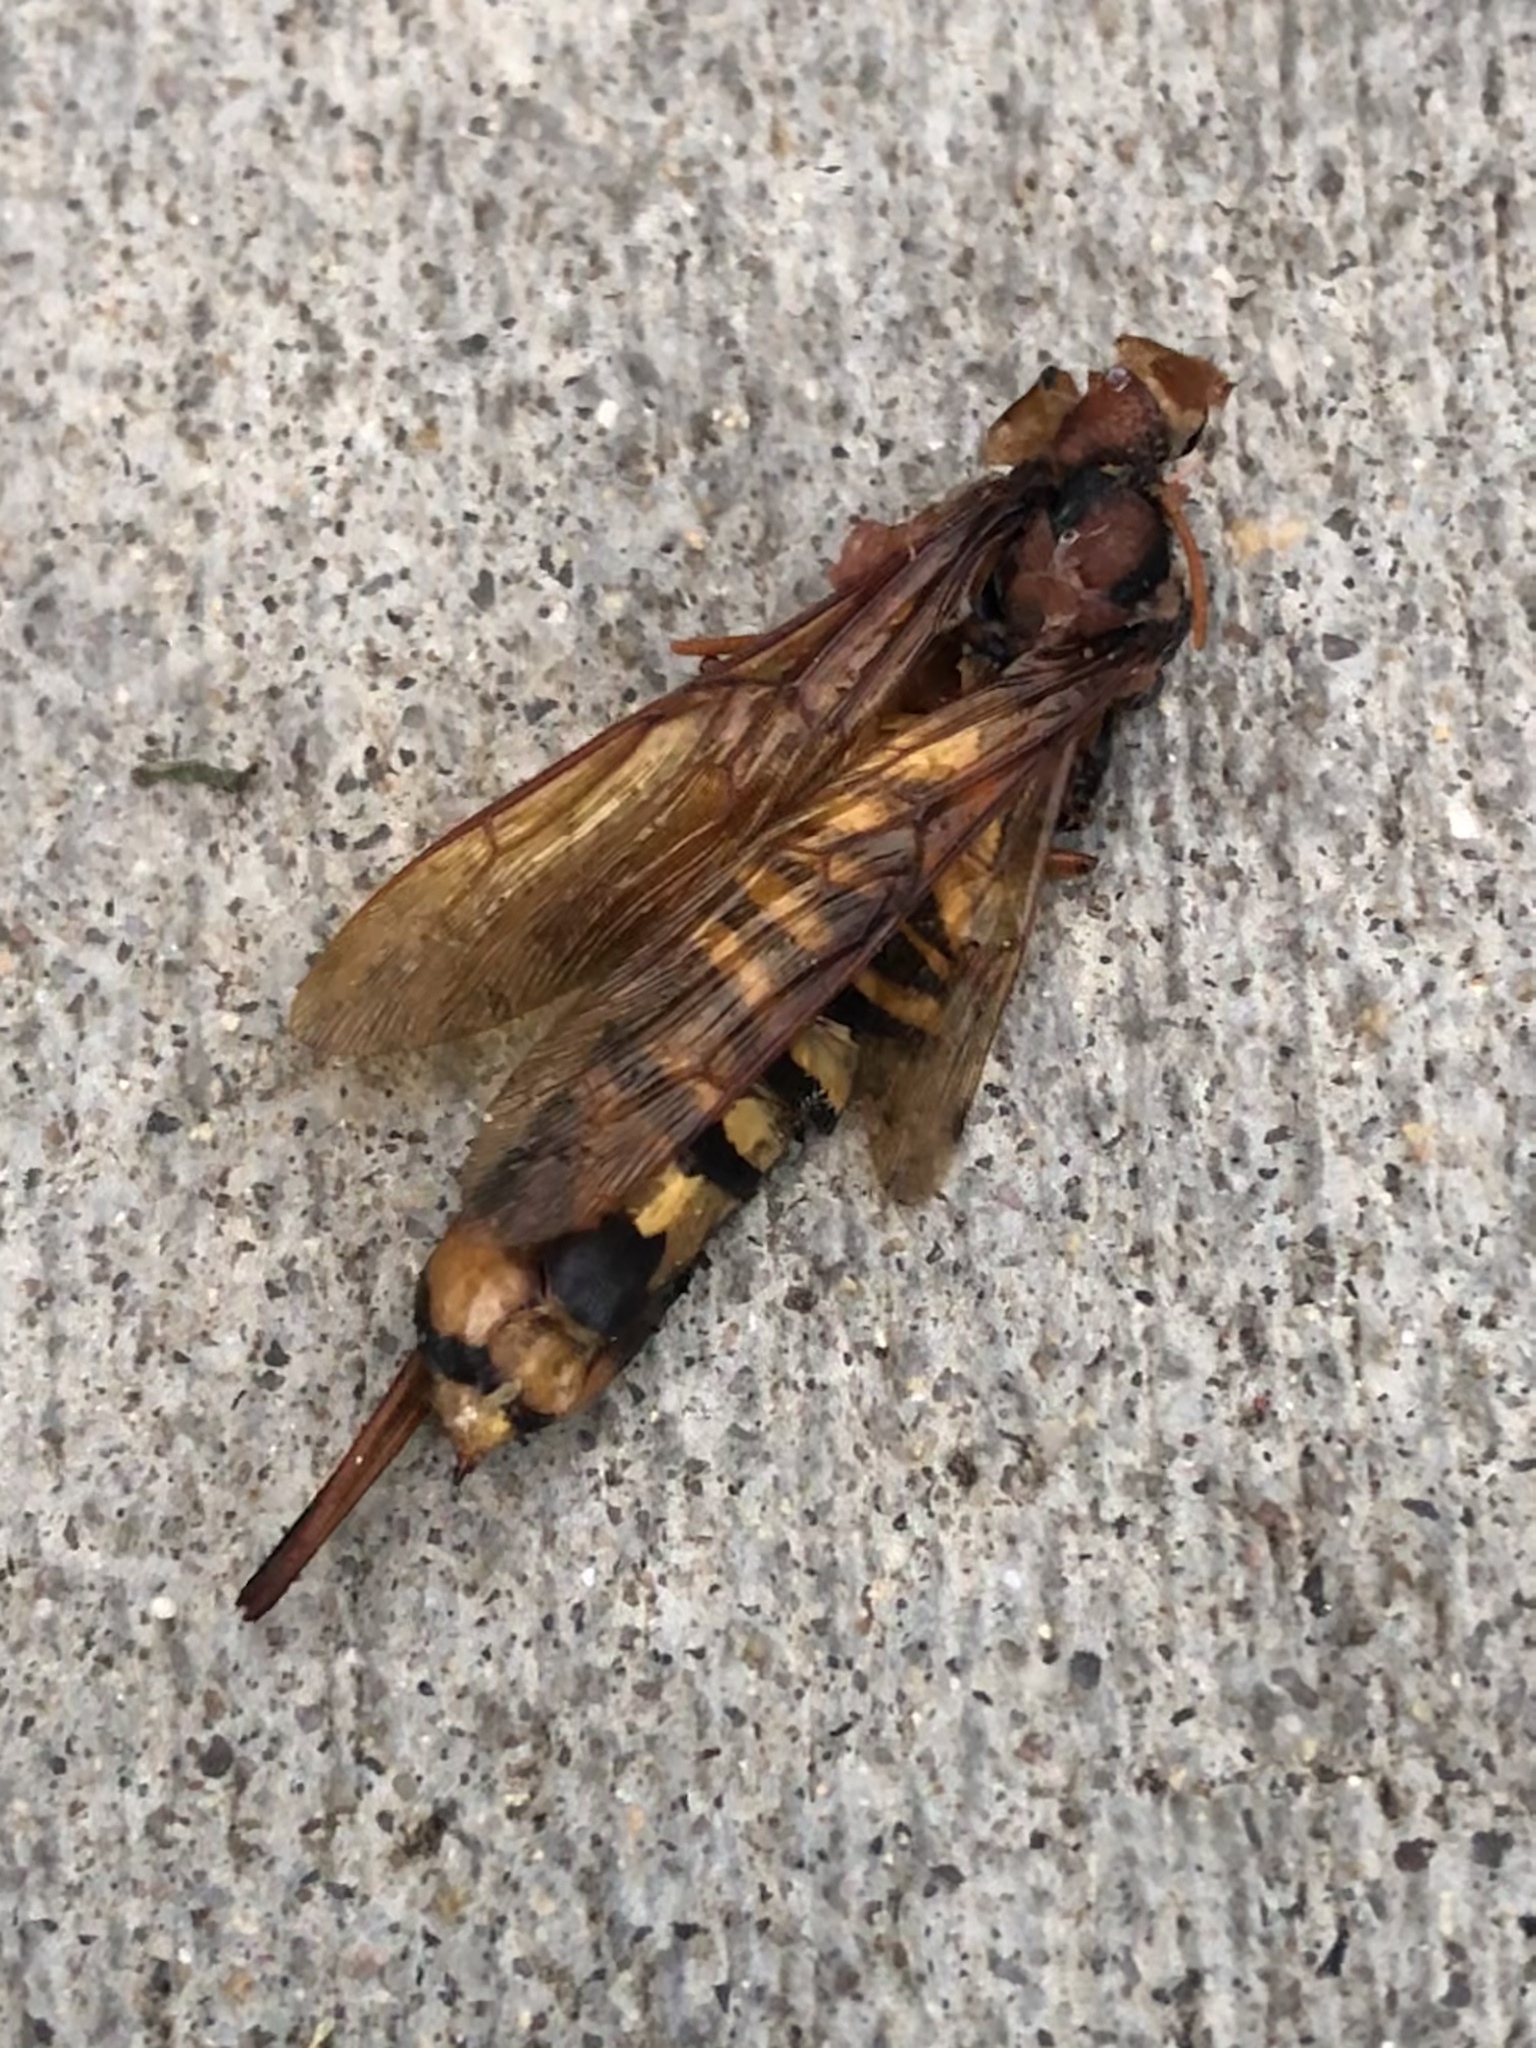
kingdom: Animalia
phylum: Arthropoda
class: Insecta
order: Hymenoptera
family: Siricidae
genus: Tremex
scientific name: Tremex columba
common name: Wasp
